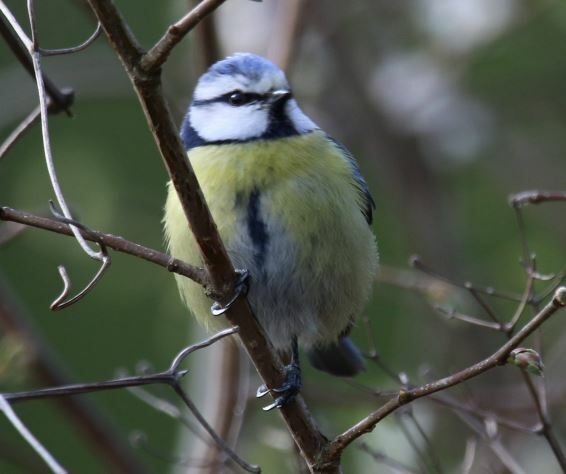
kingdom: Animalia
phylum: Chordata
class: Aves
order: Passeriformes
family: Paridae
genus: Cyanistes
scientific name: Cyanistes caeruleus
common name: Eurasian blue tit
